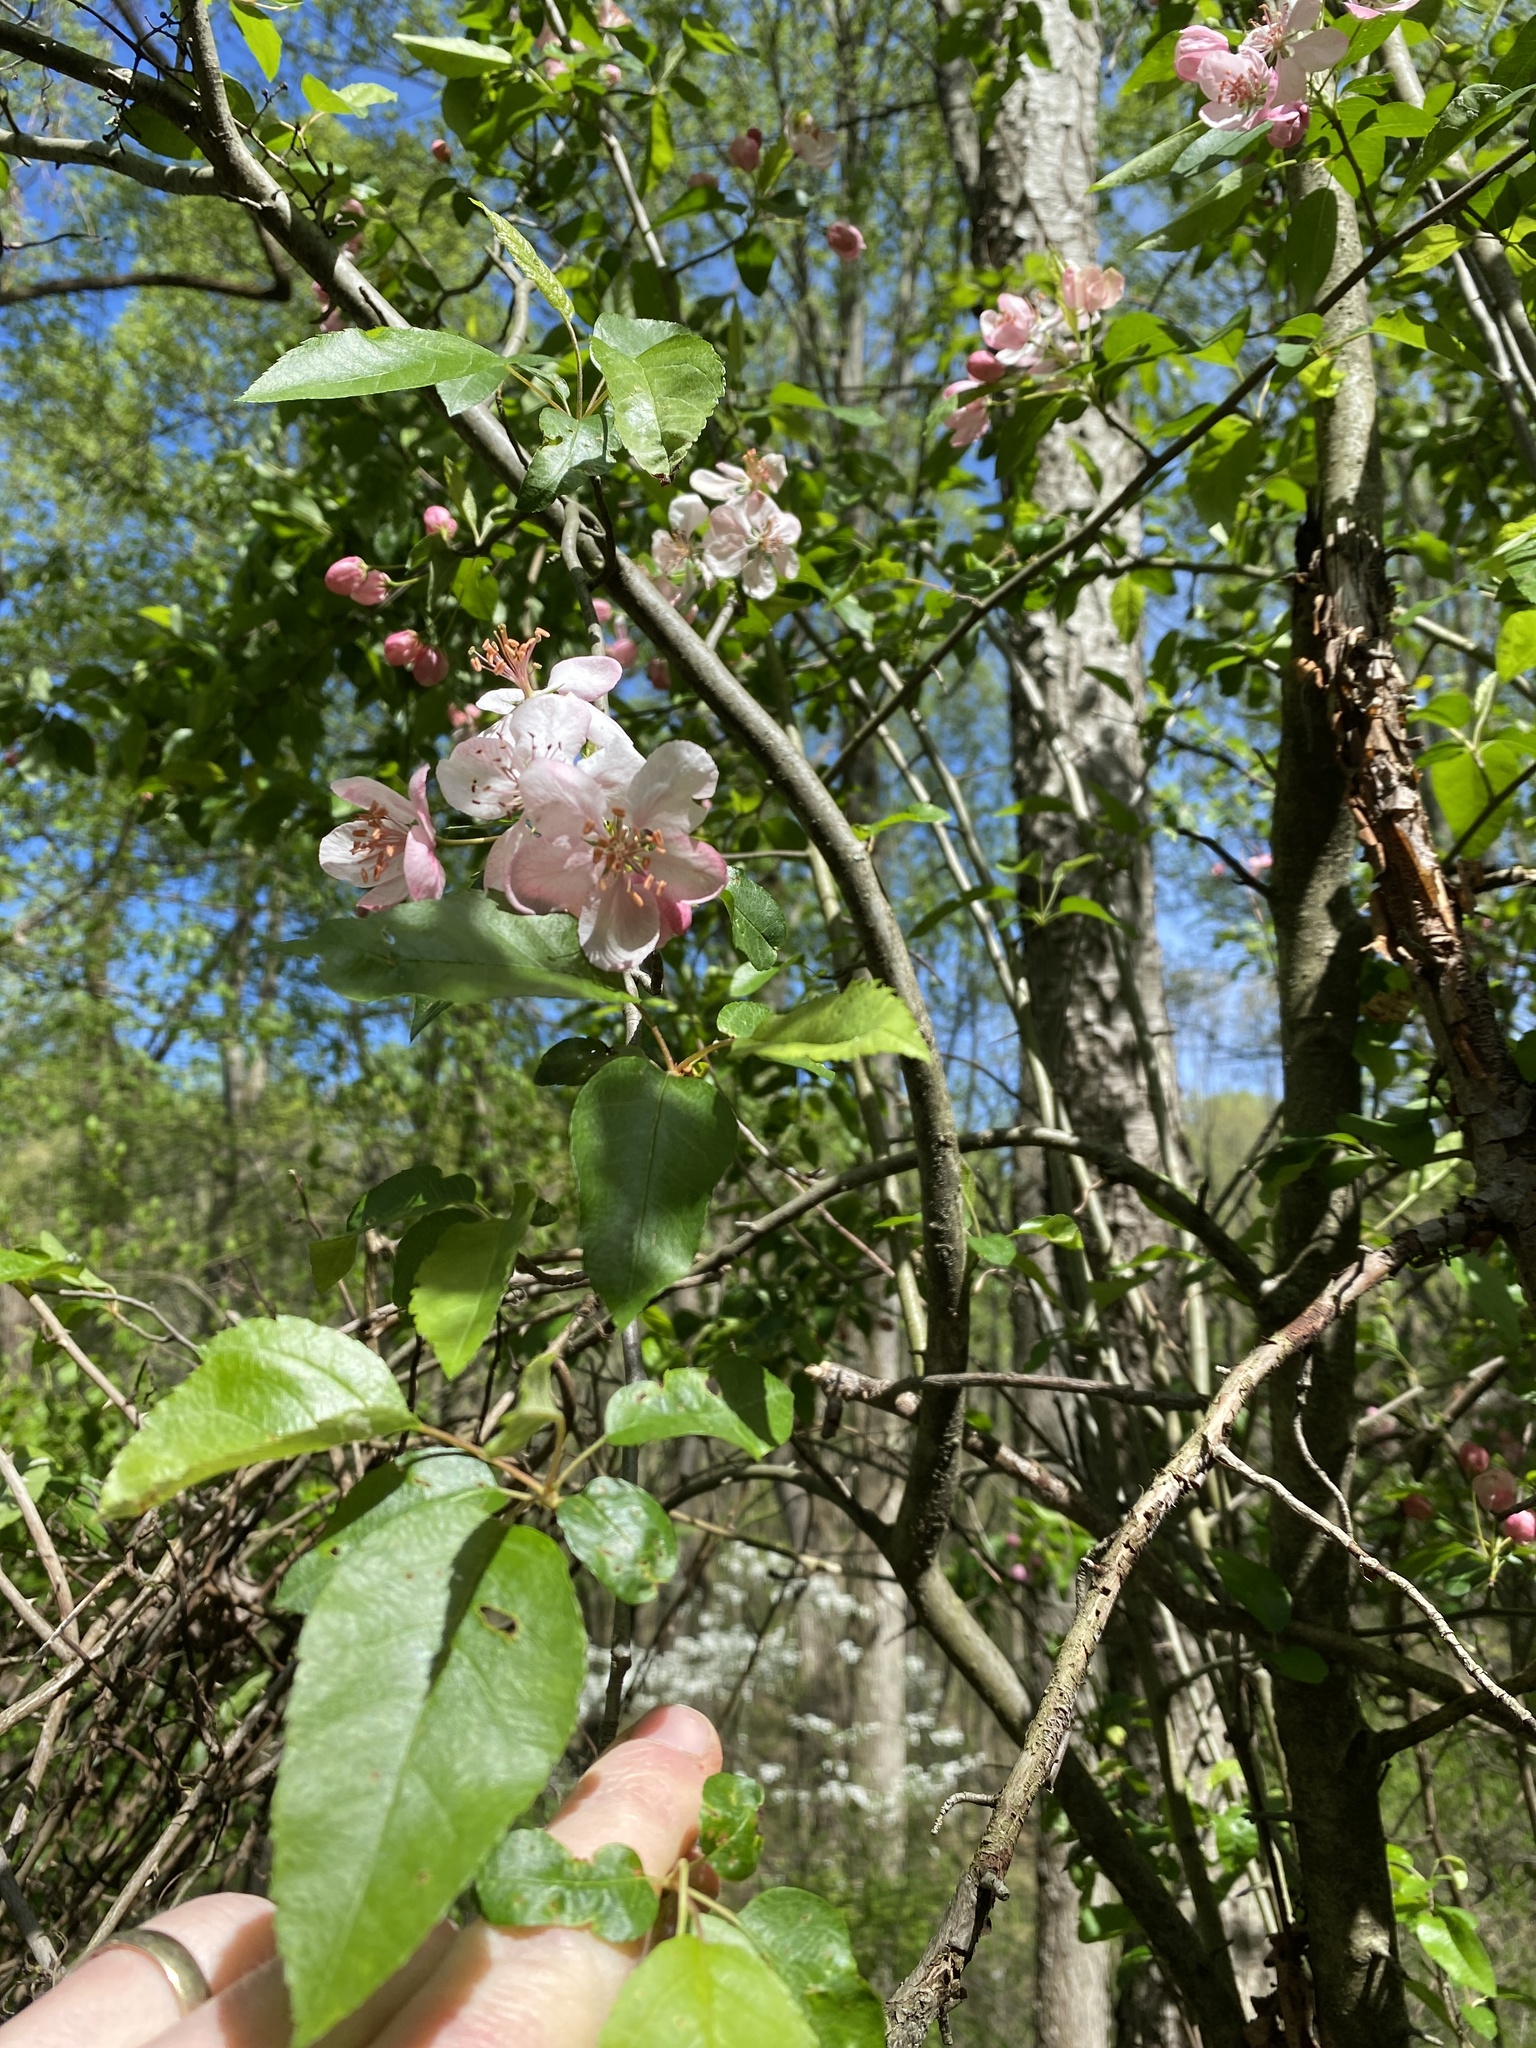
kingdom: Plantae
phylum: Tracheophyta
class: Magnoliopsida
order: Rosales
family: Rosaceae
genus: Malus
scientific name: Malus coronaria
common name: Sweet crab apple
